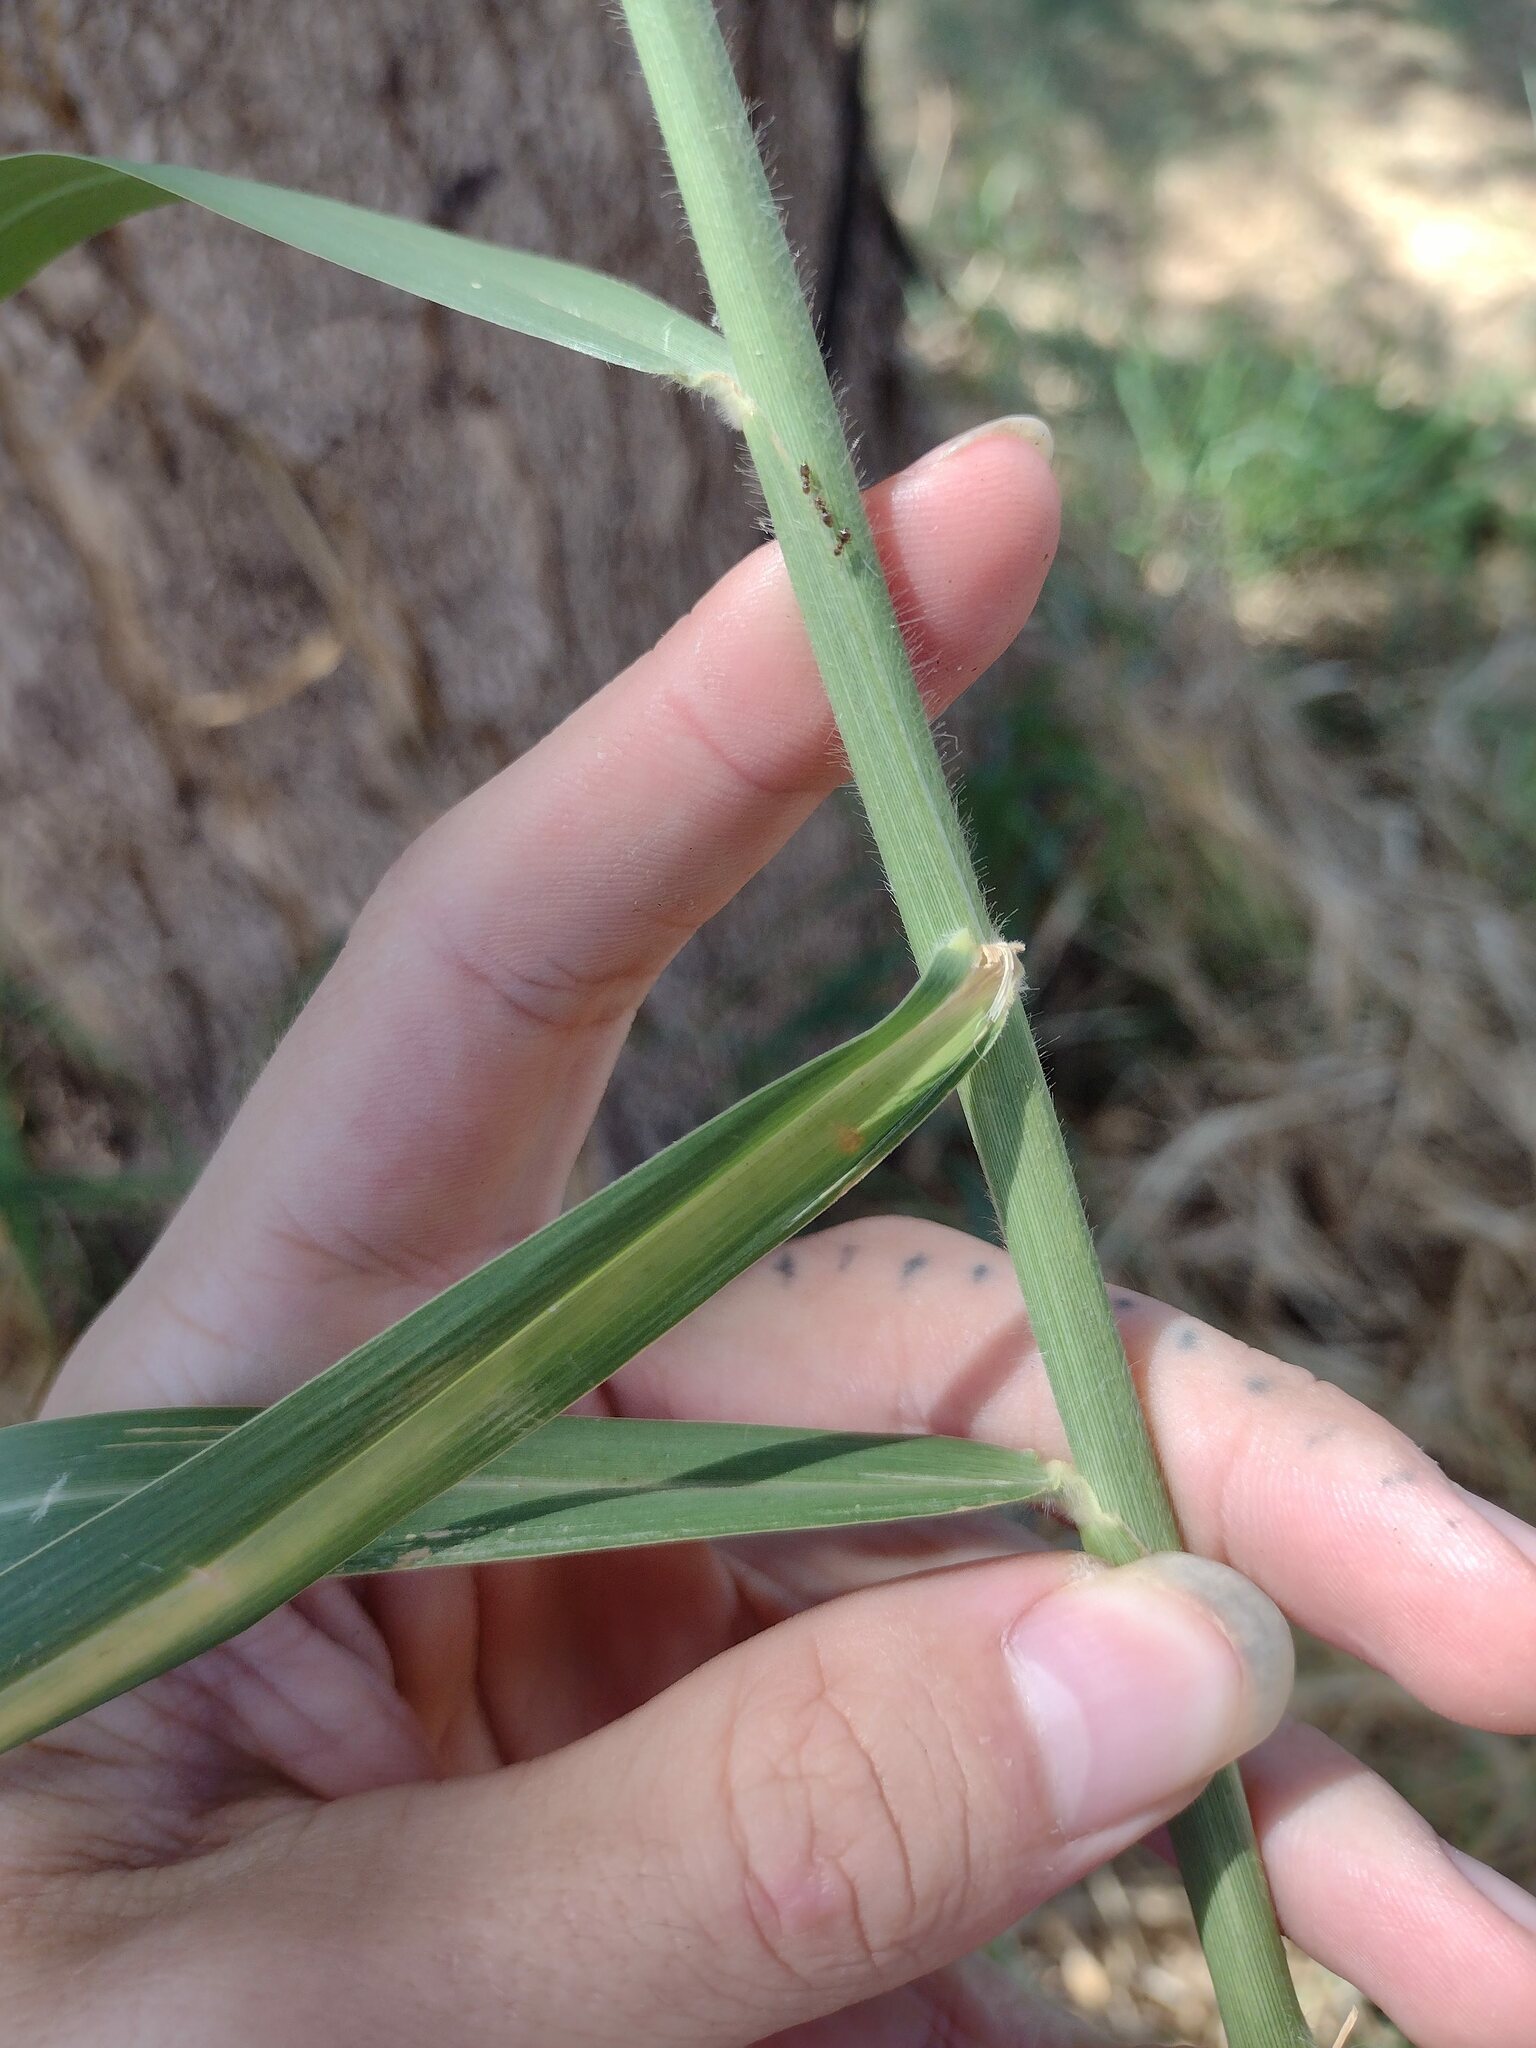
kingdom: Plantae
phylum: Tracheophyta
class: Liliopsida
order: Poales
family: Poaceae
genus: Urochloa
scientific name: Urochloa mutica
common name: Para grass
